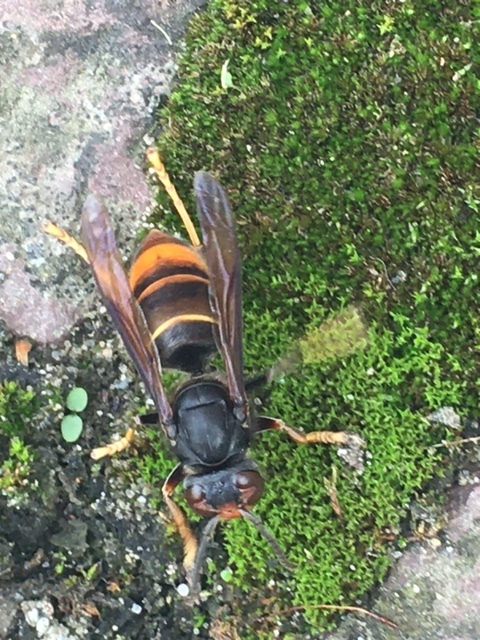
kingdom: Animalia
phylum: Arthropoda
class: Insecta
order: Hymenoptera
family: Vespidae
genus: Vespa
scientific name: Vespa velutina
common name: Asian hornet
